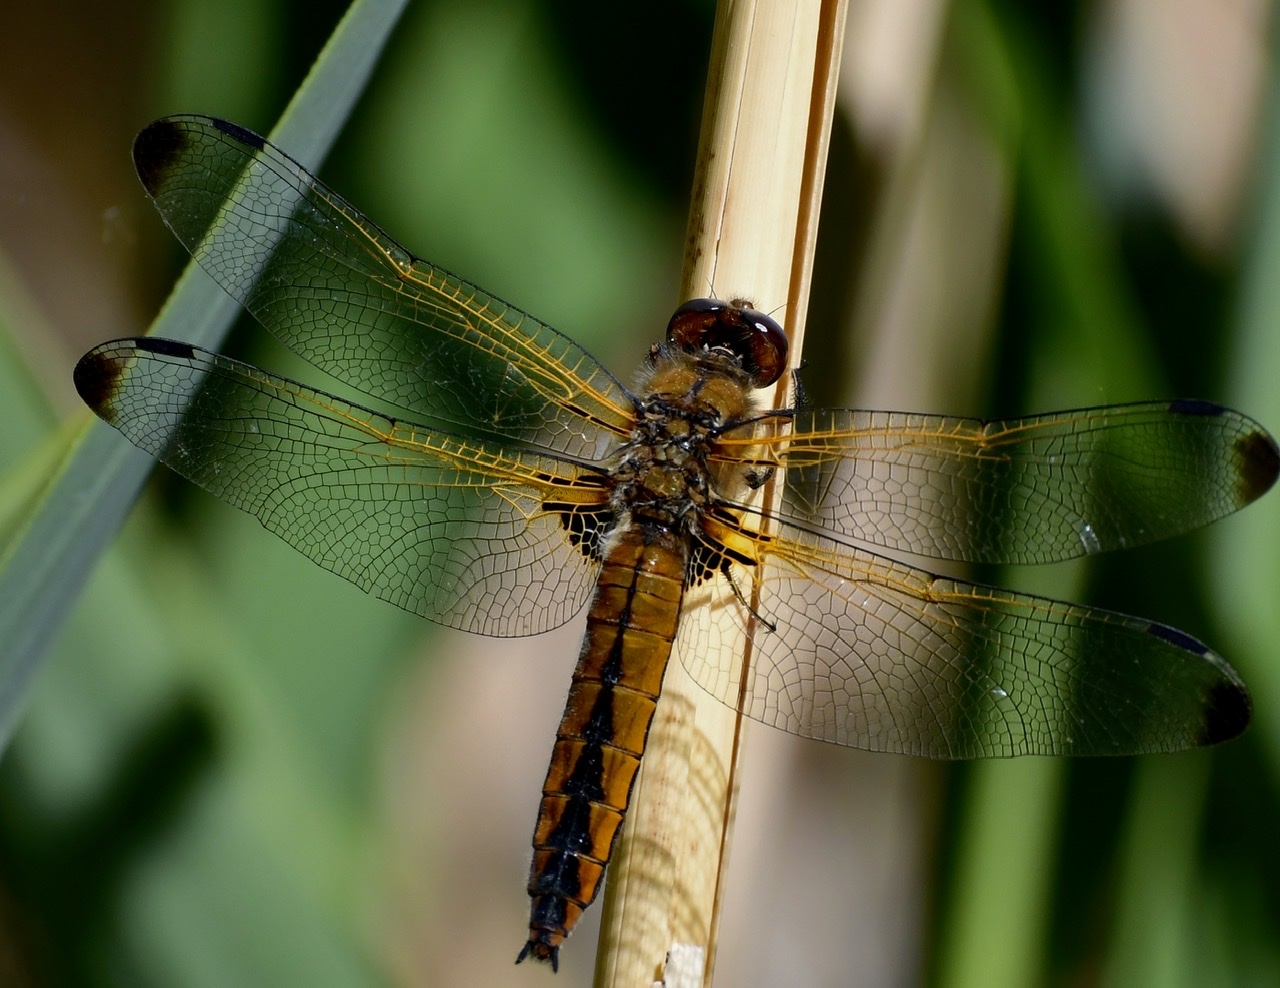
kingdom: Animalia
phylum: Arthropoda
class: Insecta
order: Odonata
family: Libellulidae
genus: Libellula
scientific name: Libellula fulva
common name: Blue chaser
